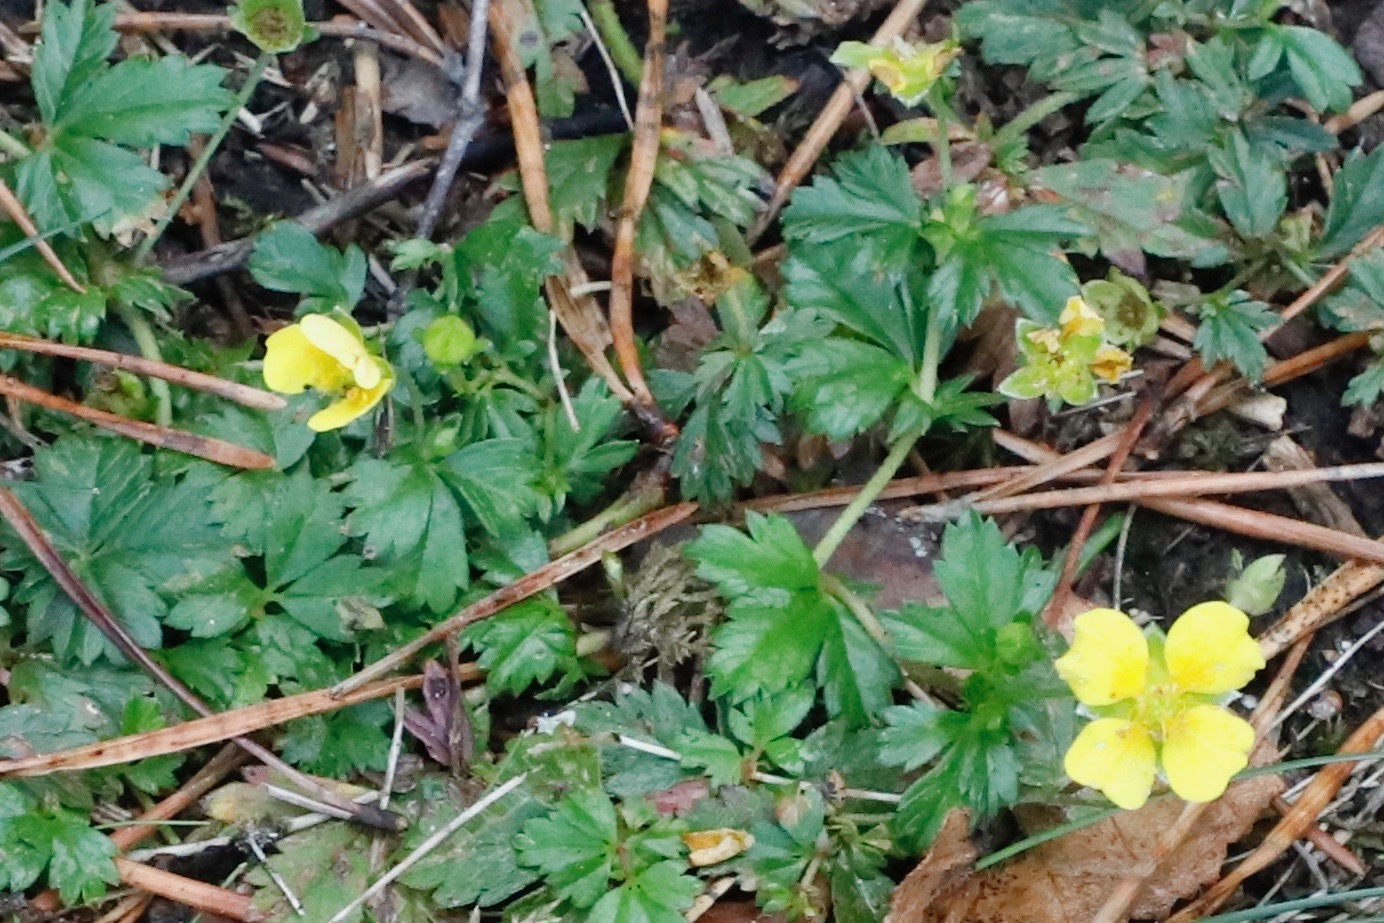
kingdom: Plantae
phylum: Tracheophyta
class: Magnoliopsida
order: Rosales
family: Rosaceae
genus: Potentilla
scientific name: Potentilla erecta
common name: Tormentil
